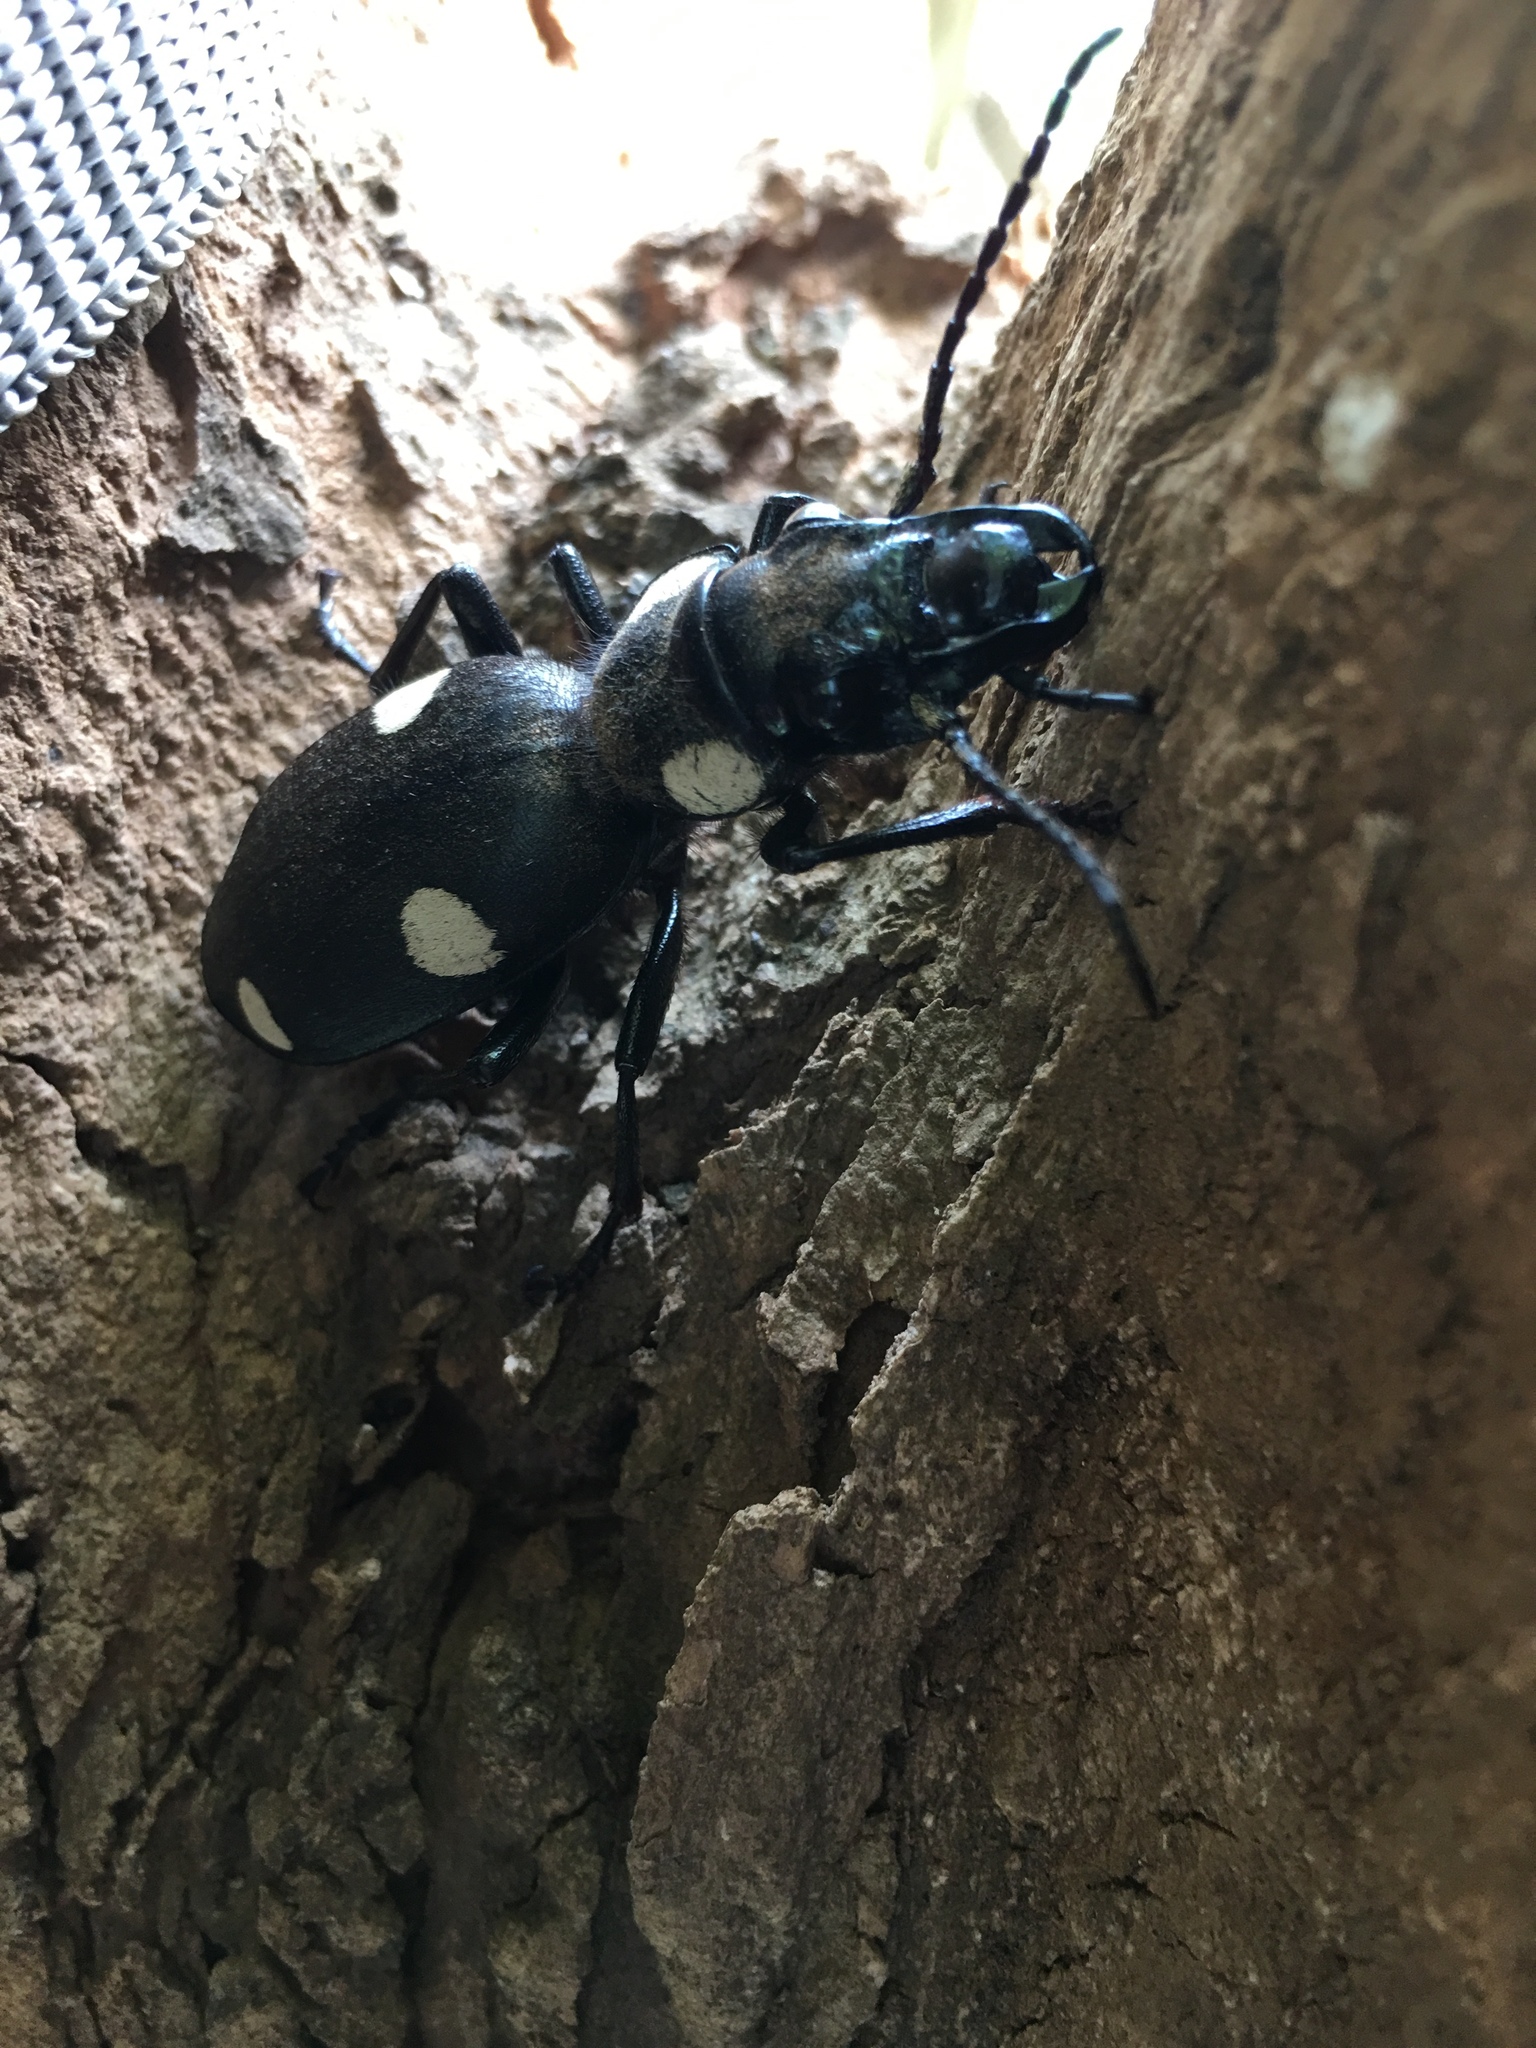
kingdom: Animalia
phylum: Arthropoda
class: Insecta
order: Coleoptera
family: Carabidae
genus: Anthia
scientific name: Anthia sexguttata
